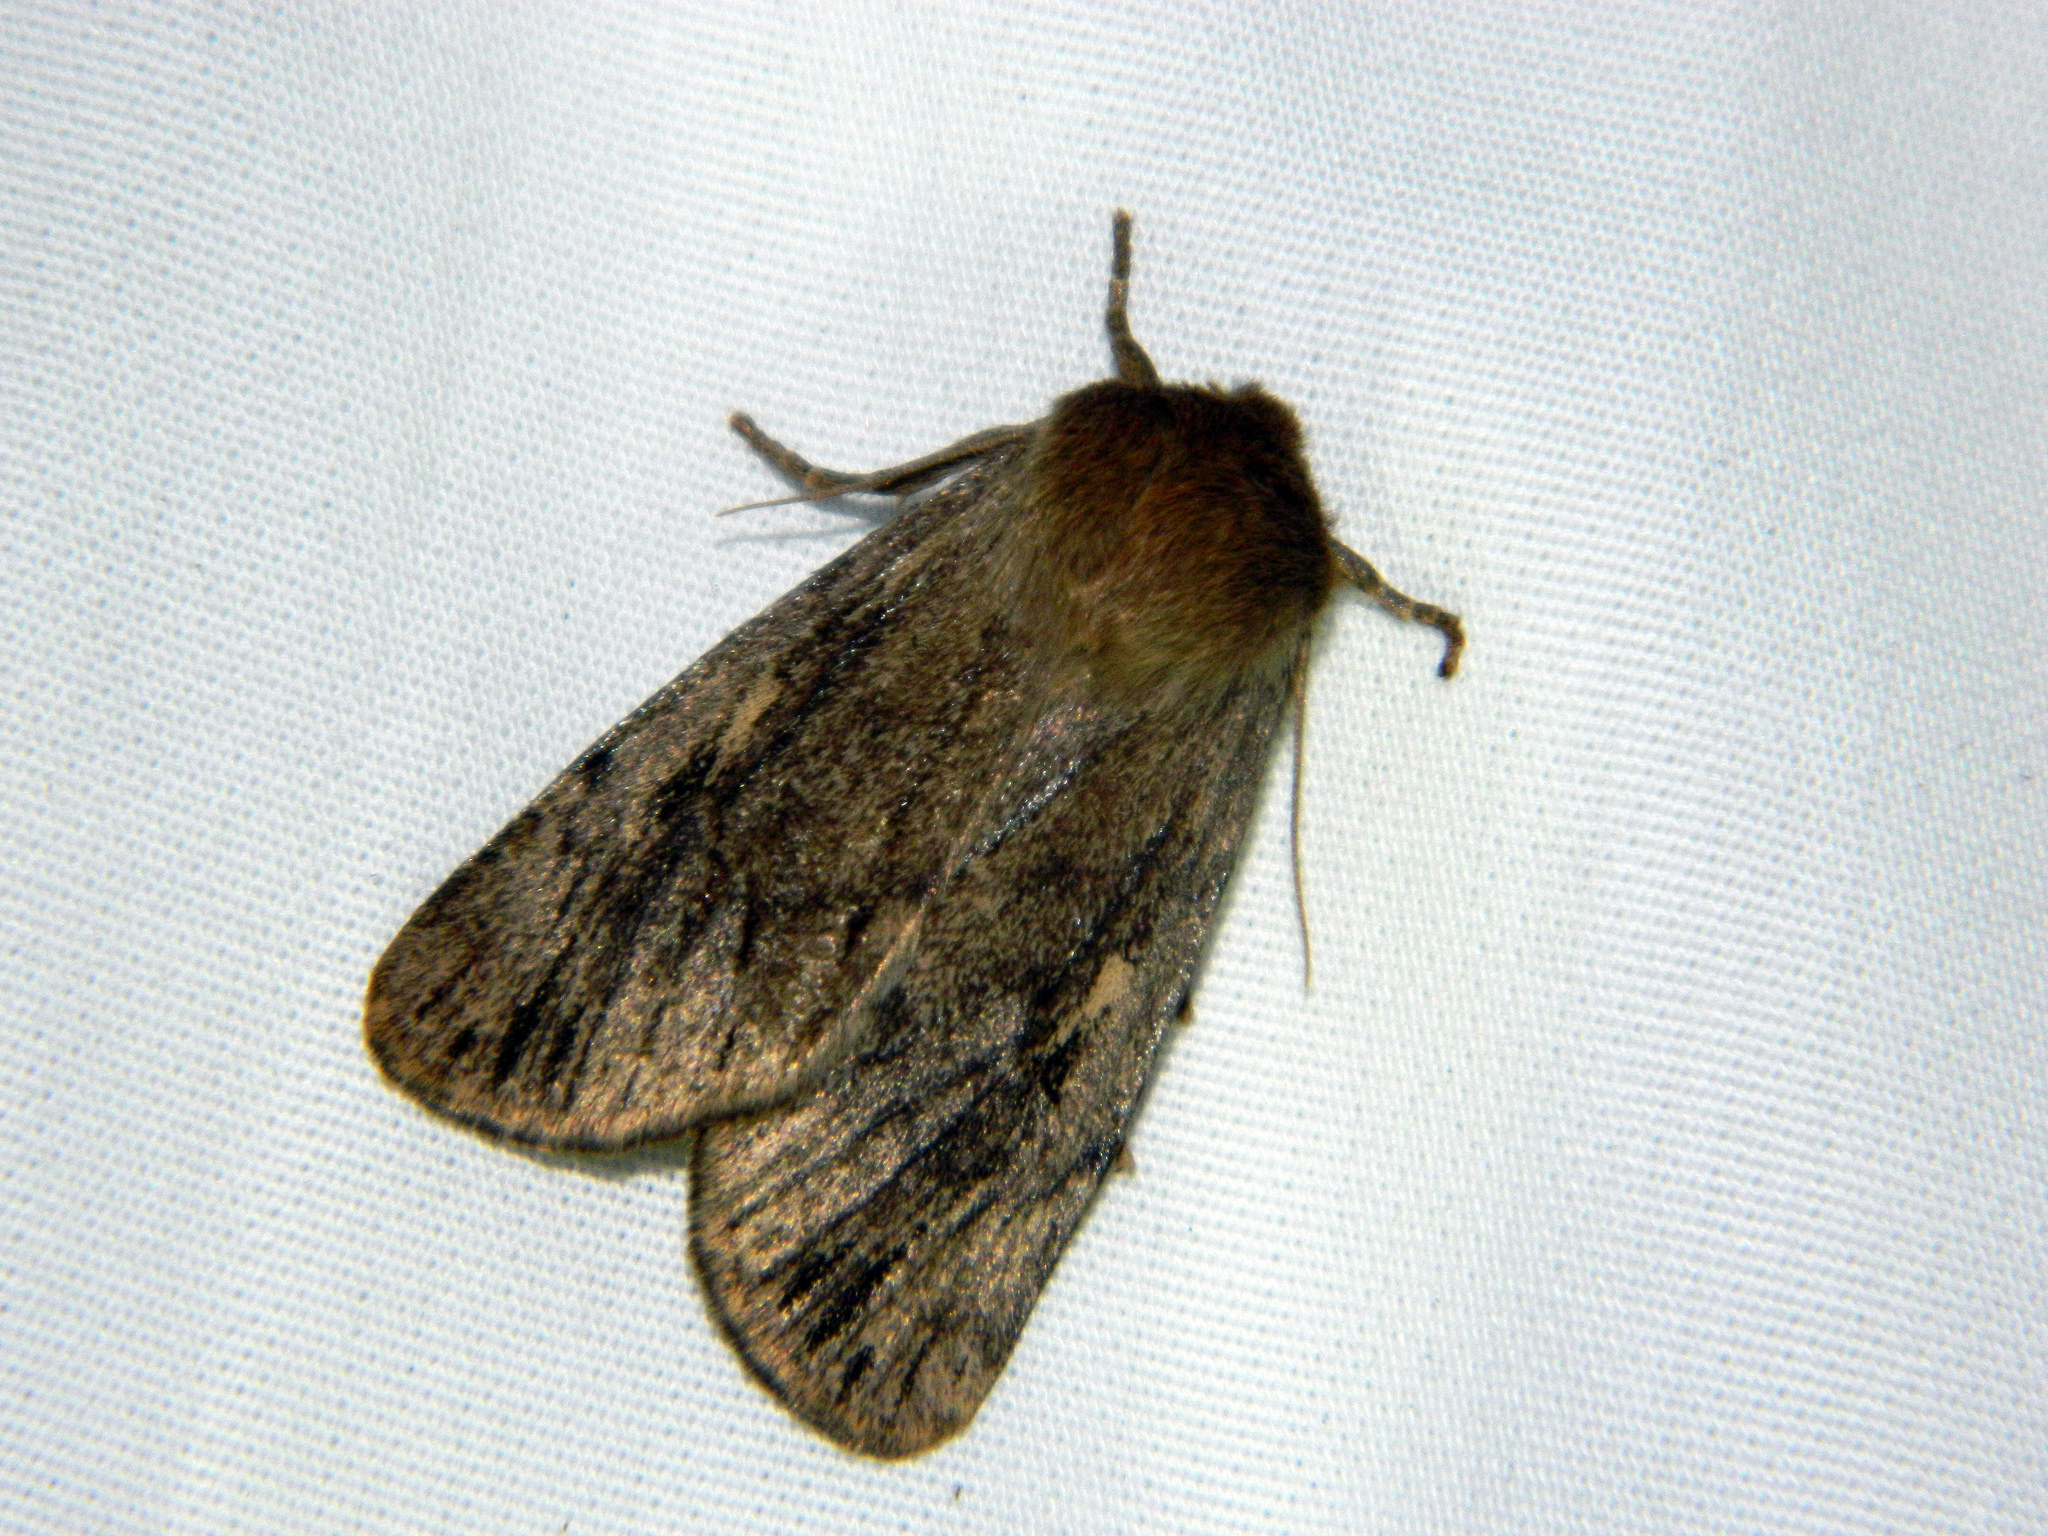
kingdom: Animalia
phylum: Arthropoda
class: Insecta
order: Lepidoptera
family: Noctuidae
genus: Ufeus
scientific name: Ufeus satyricus
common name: Brown satyr moth
